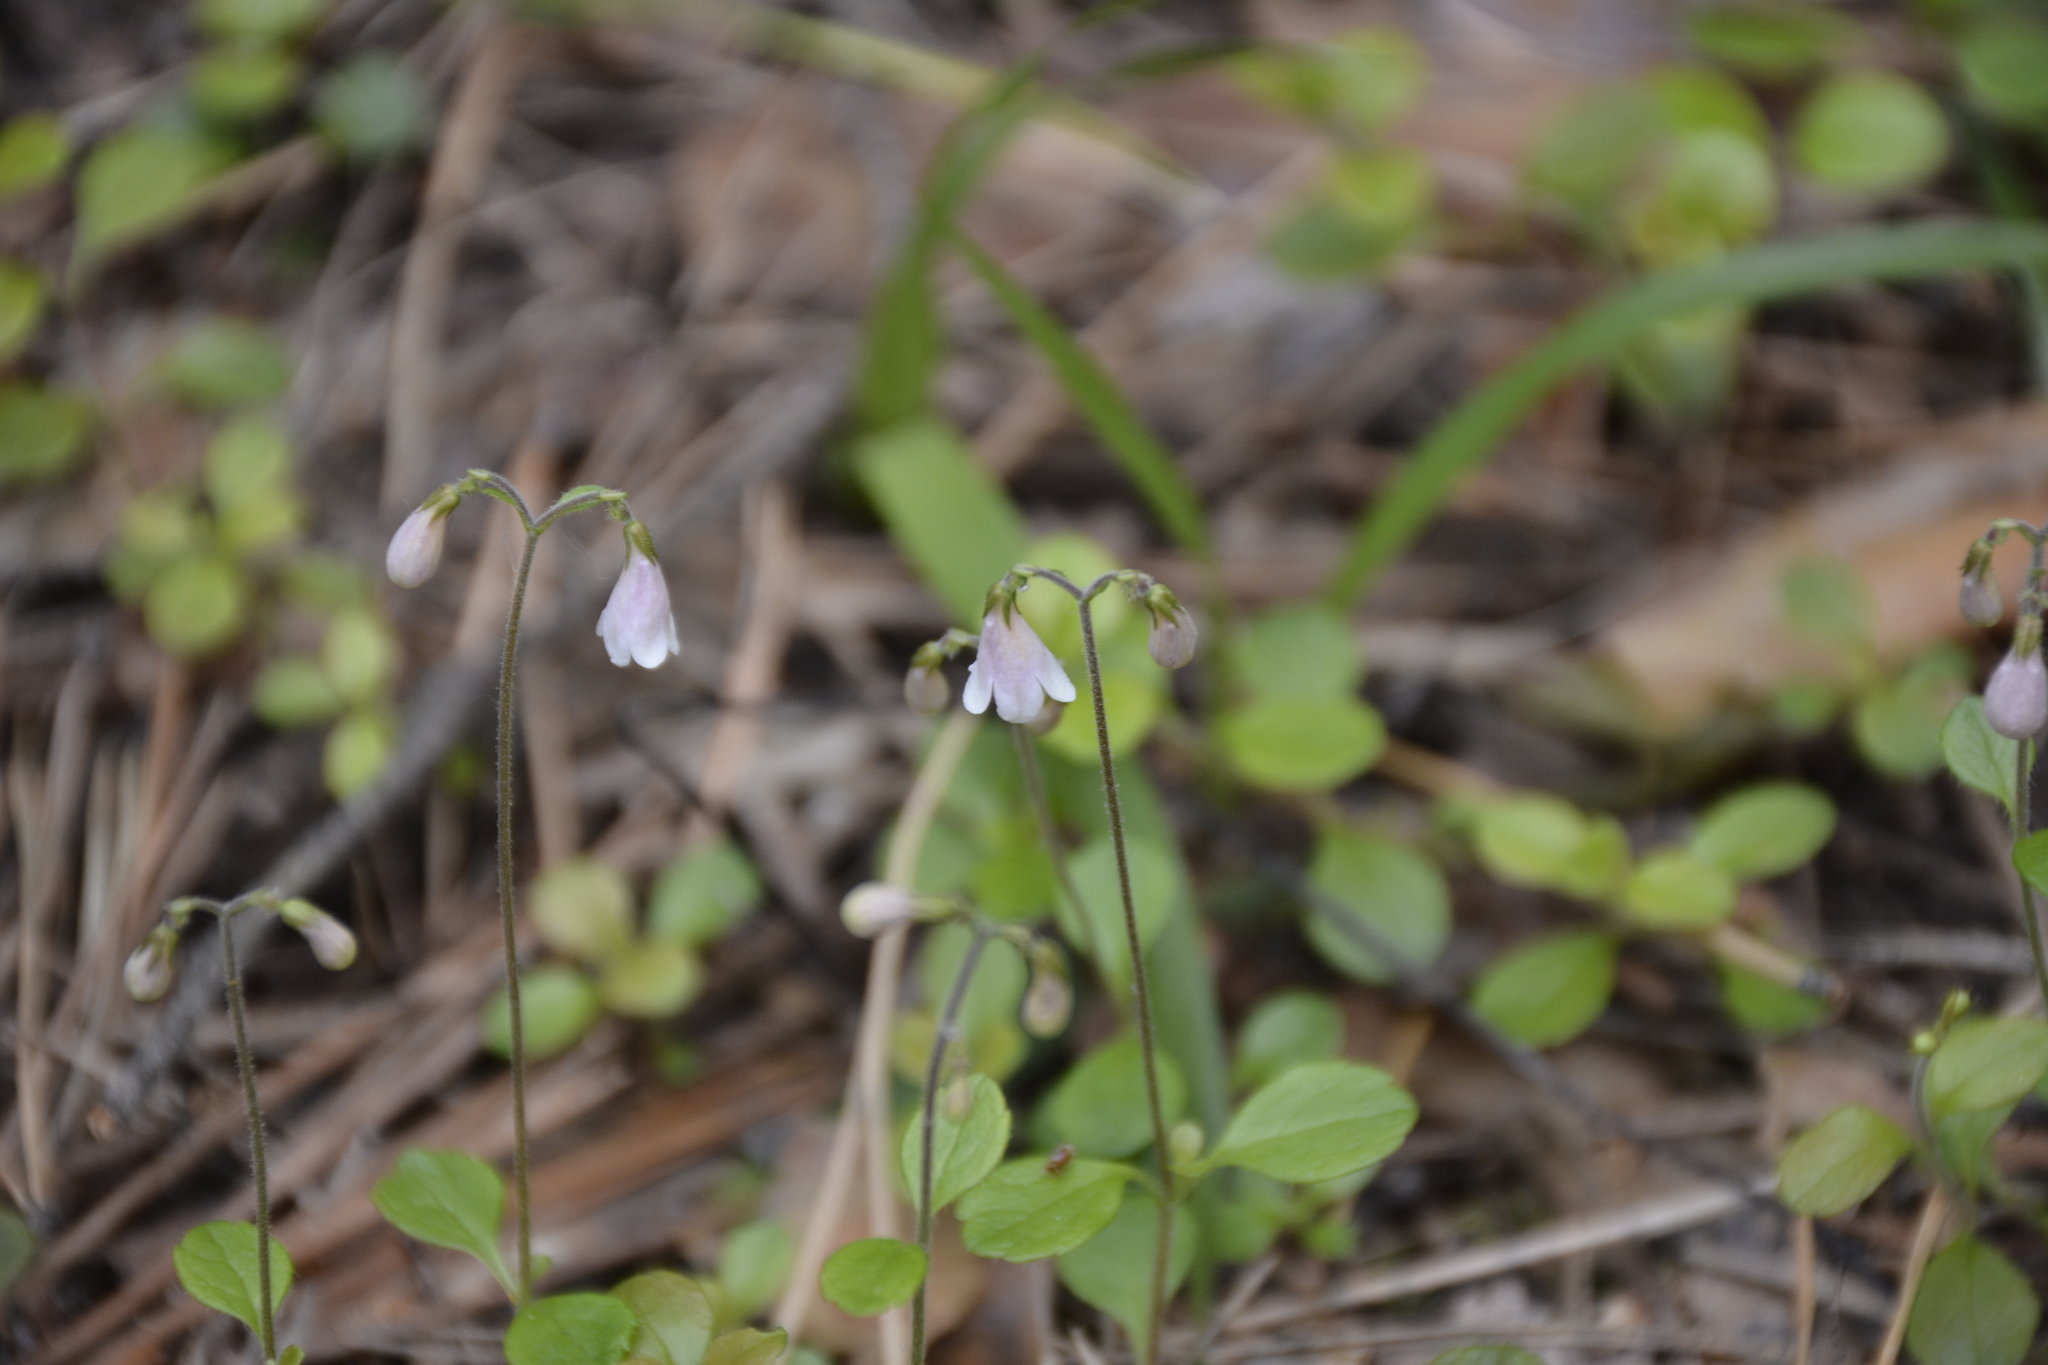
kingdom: Plantae
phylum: Tracheophyta
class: Magnoliopsida
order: Dipsacales
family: Caprifoliaceae
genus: Linnaea
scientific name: Linnaea borealis
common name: Twinflower
